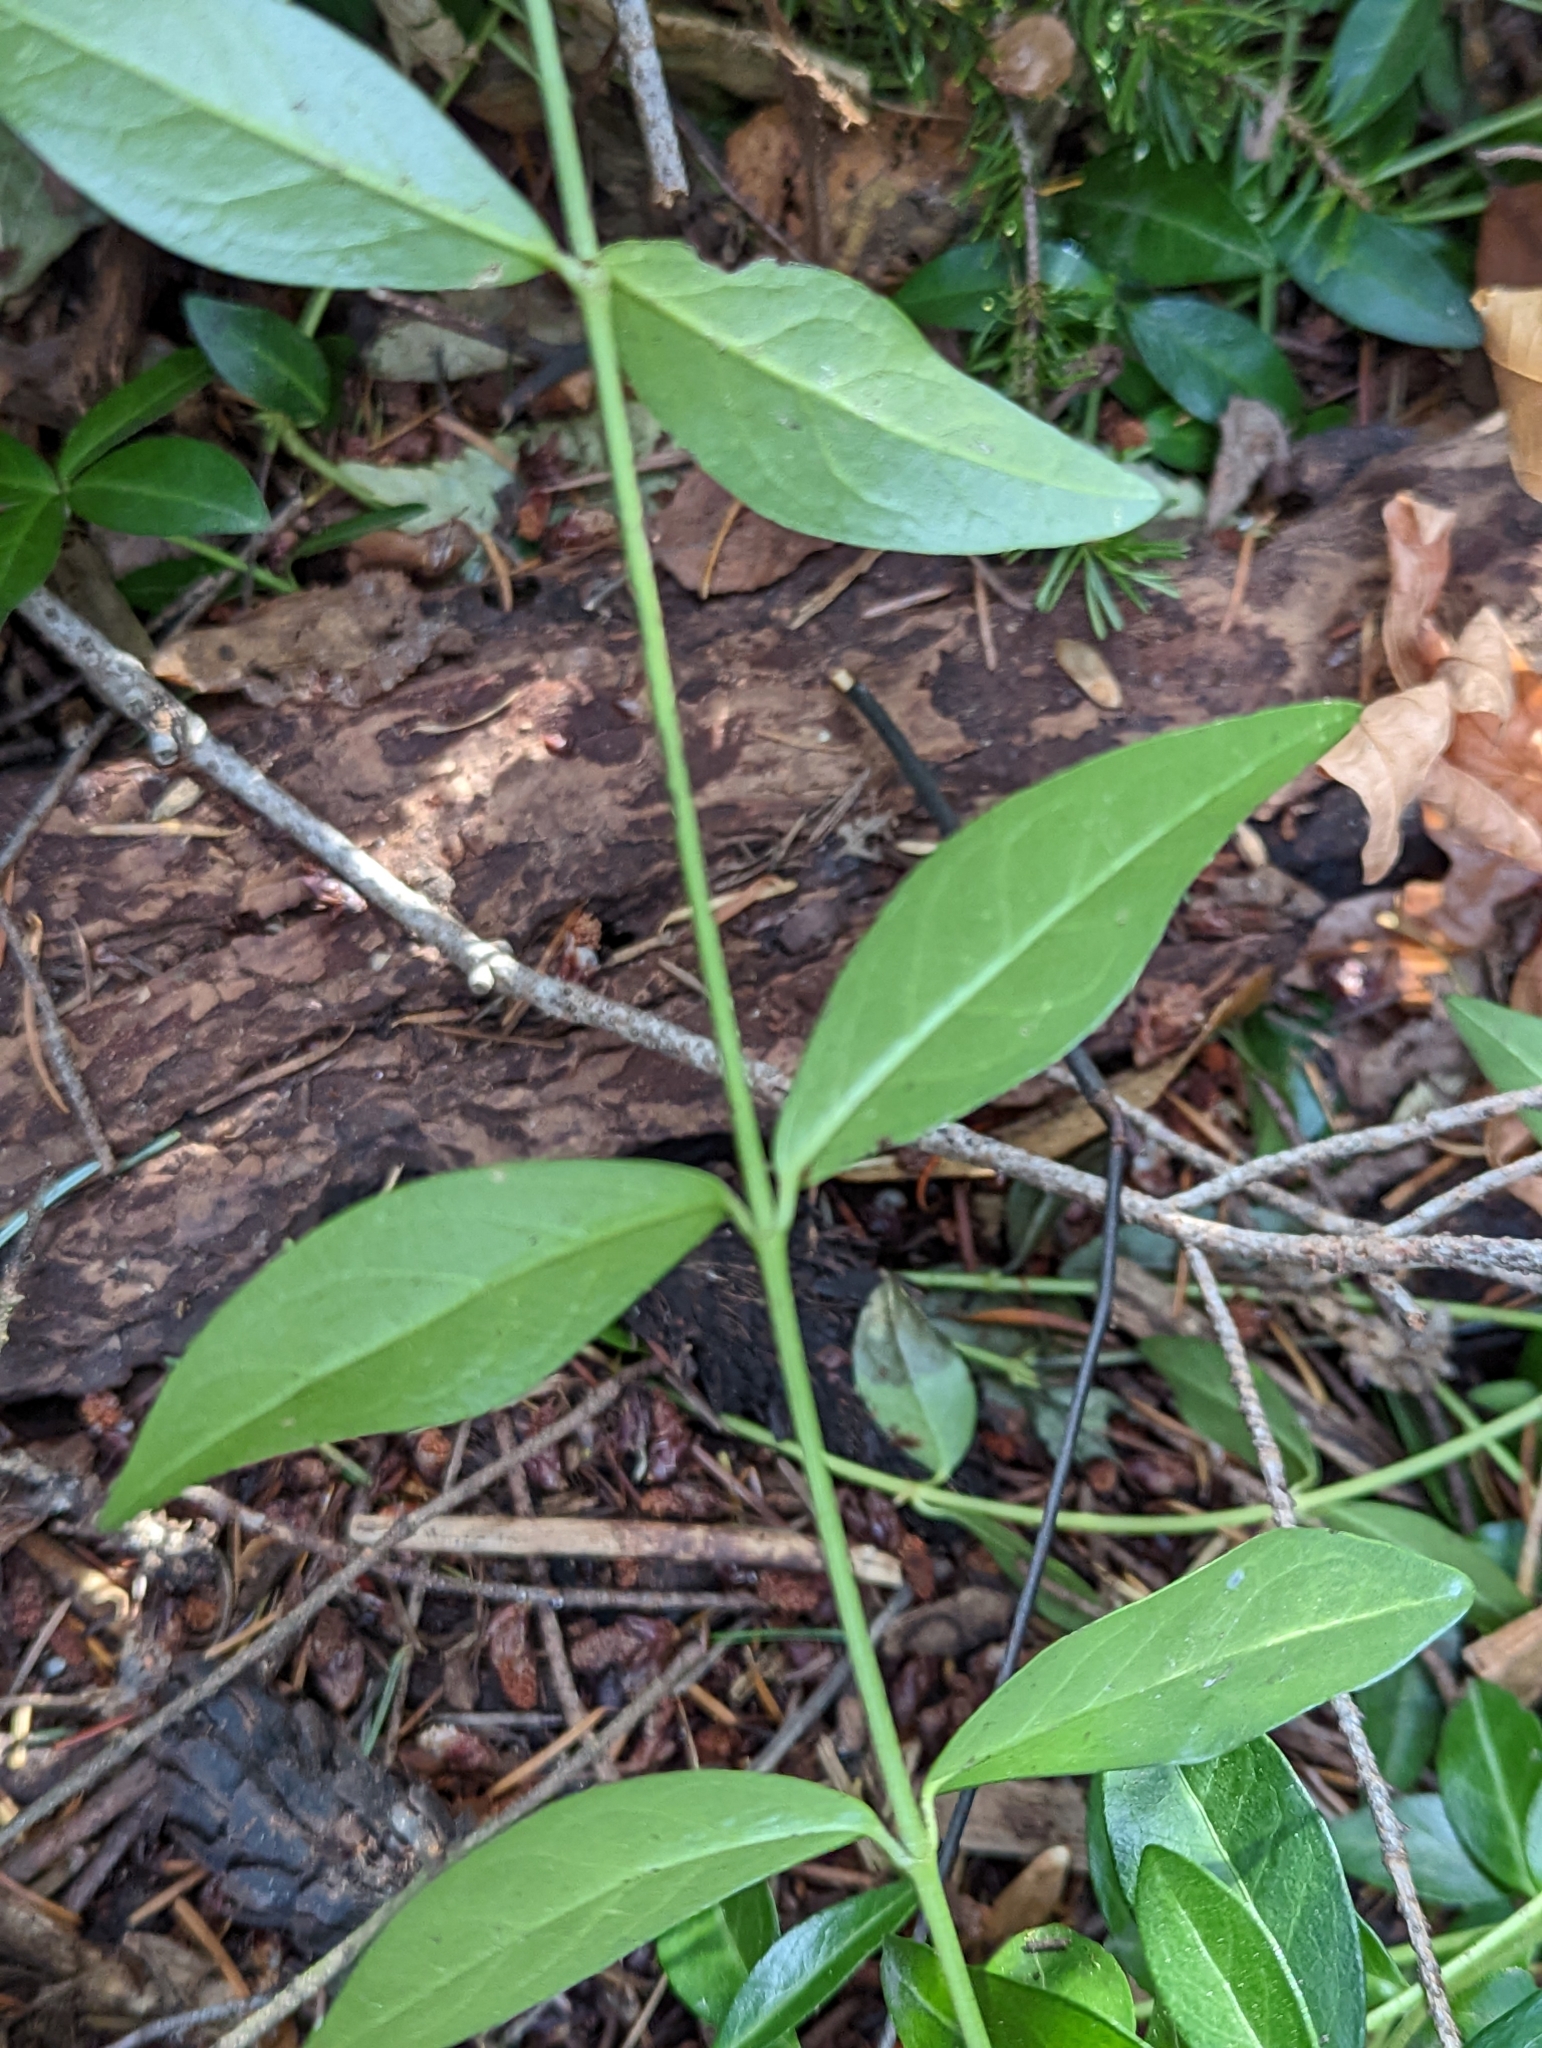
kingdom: Plantae
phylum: Tracheophyta
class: Magnoliopsida
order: Gentianales
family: Apocynaceae
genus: Vinca
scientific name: Vinca minor
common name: Lesser periwinkle
